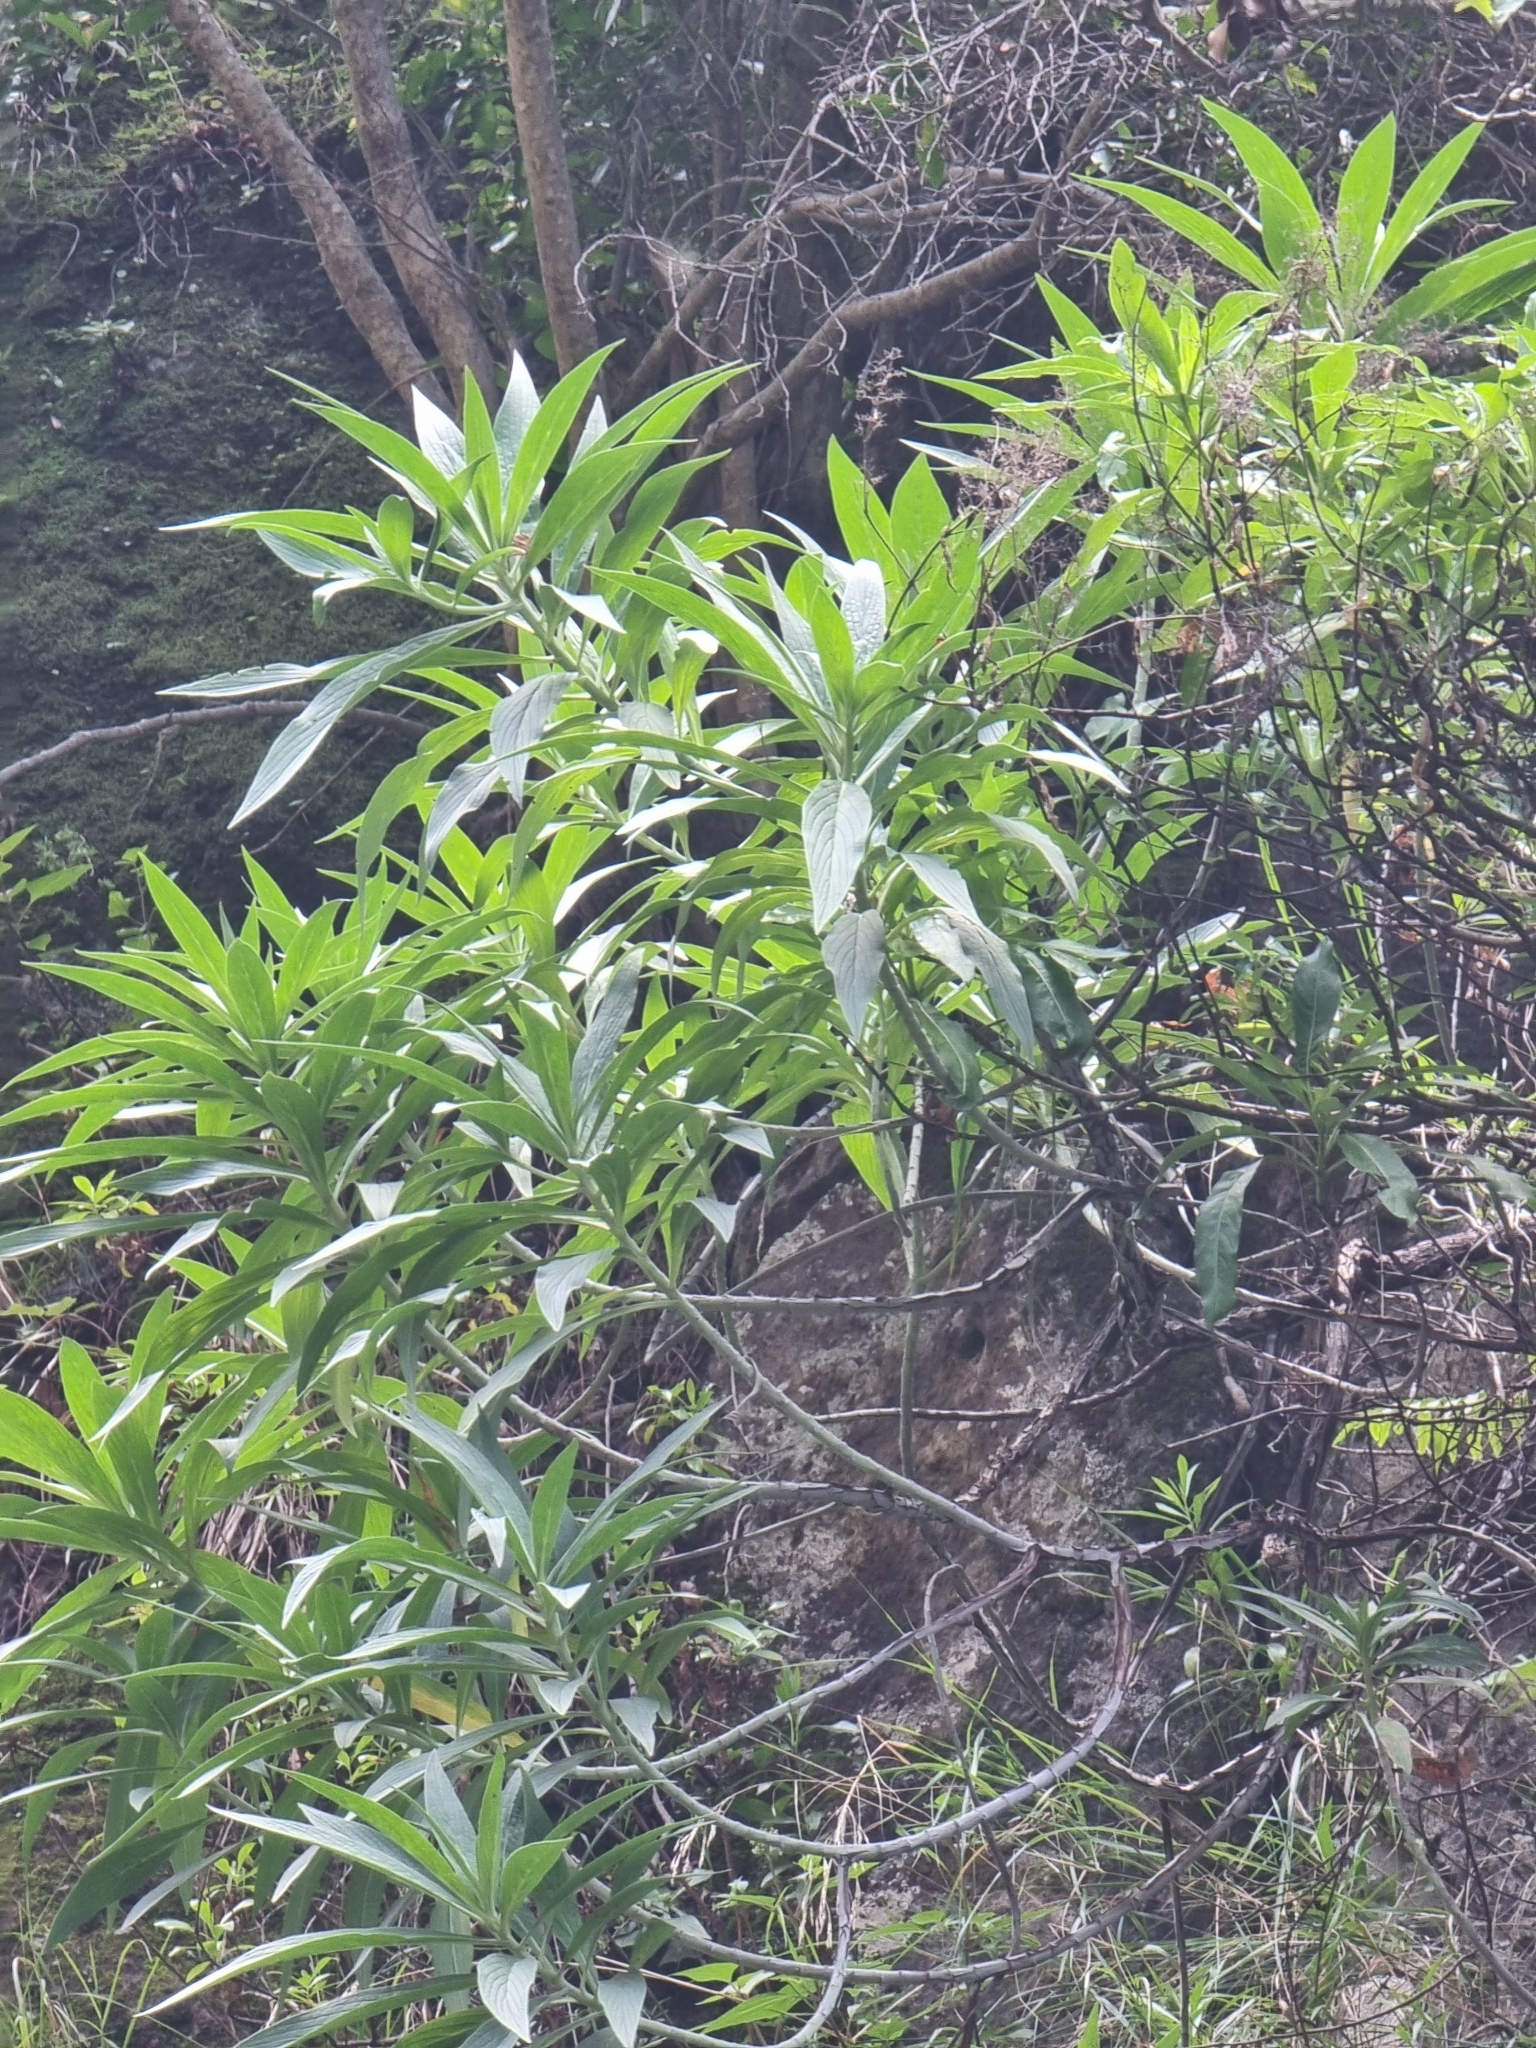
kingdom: Plantae
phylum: Tracheophyta
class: Magnoliopsida
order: Boraginales
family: Boraginaceae
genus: Echium
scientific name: Echium nervosum
